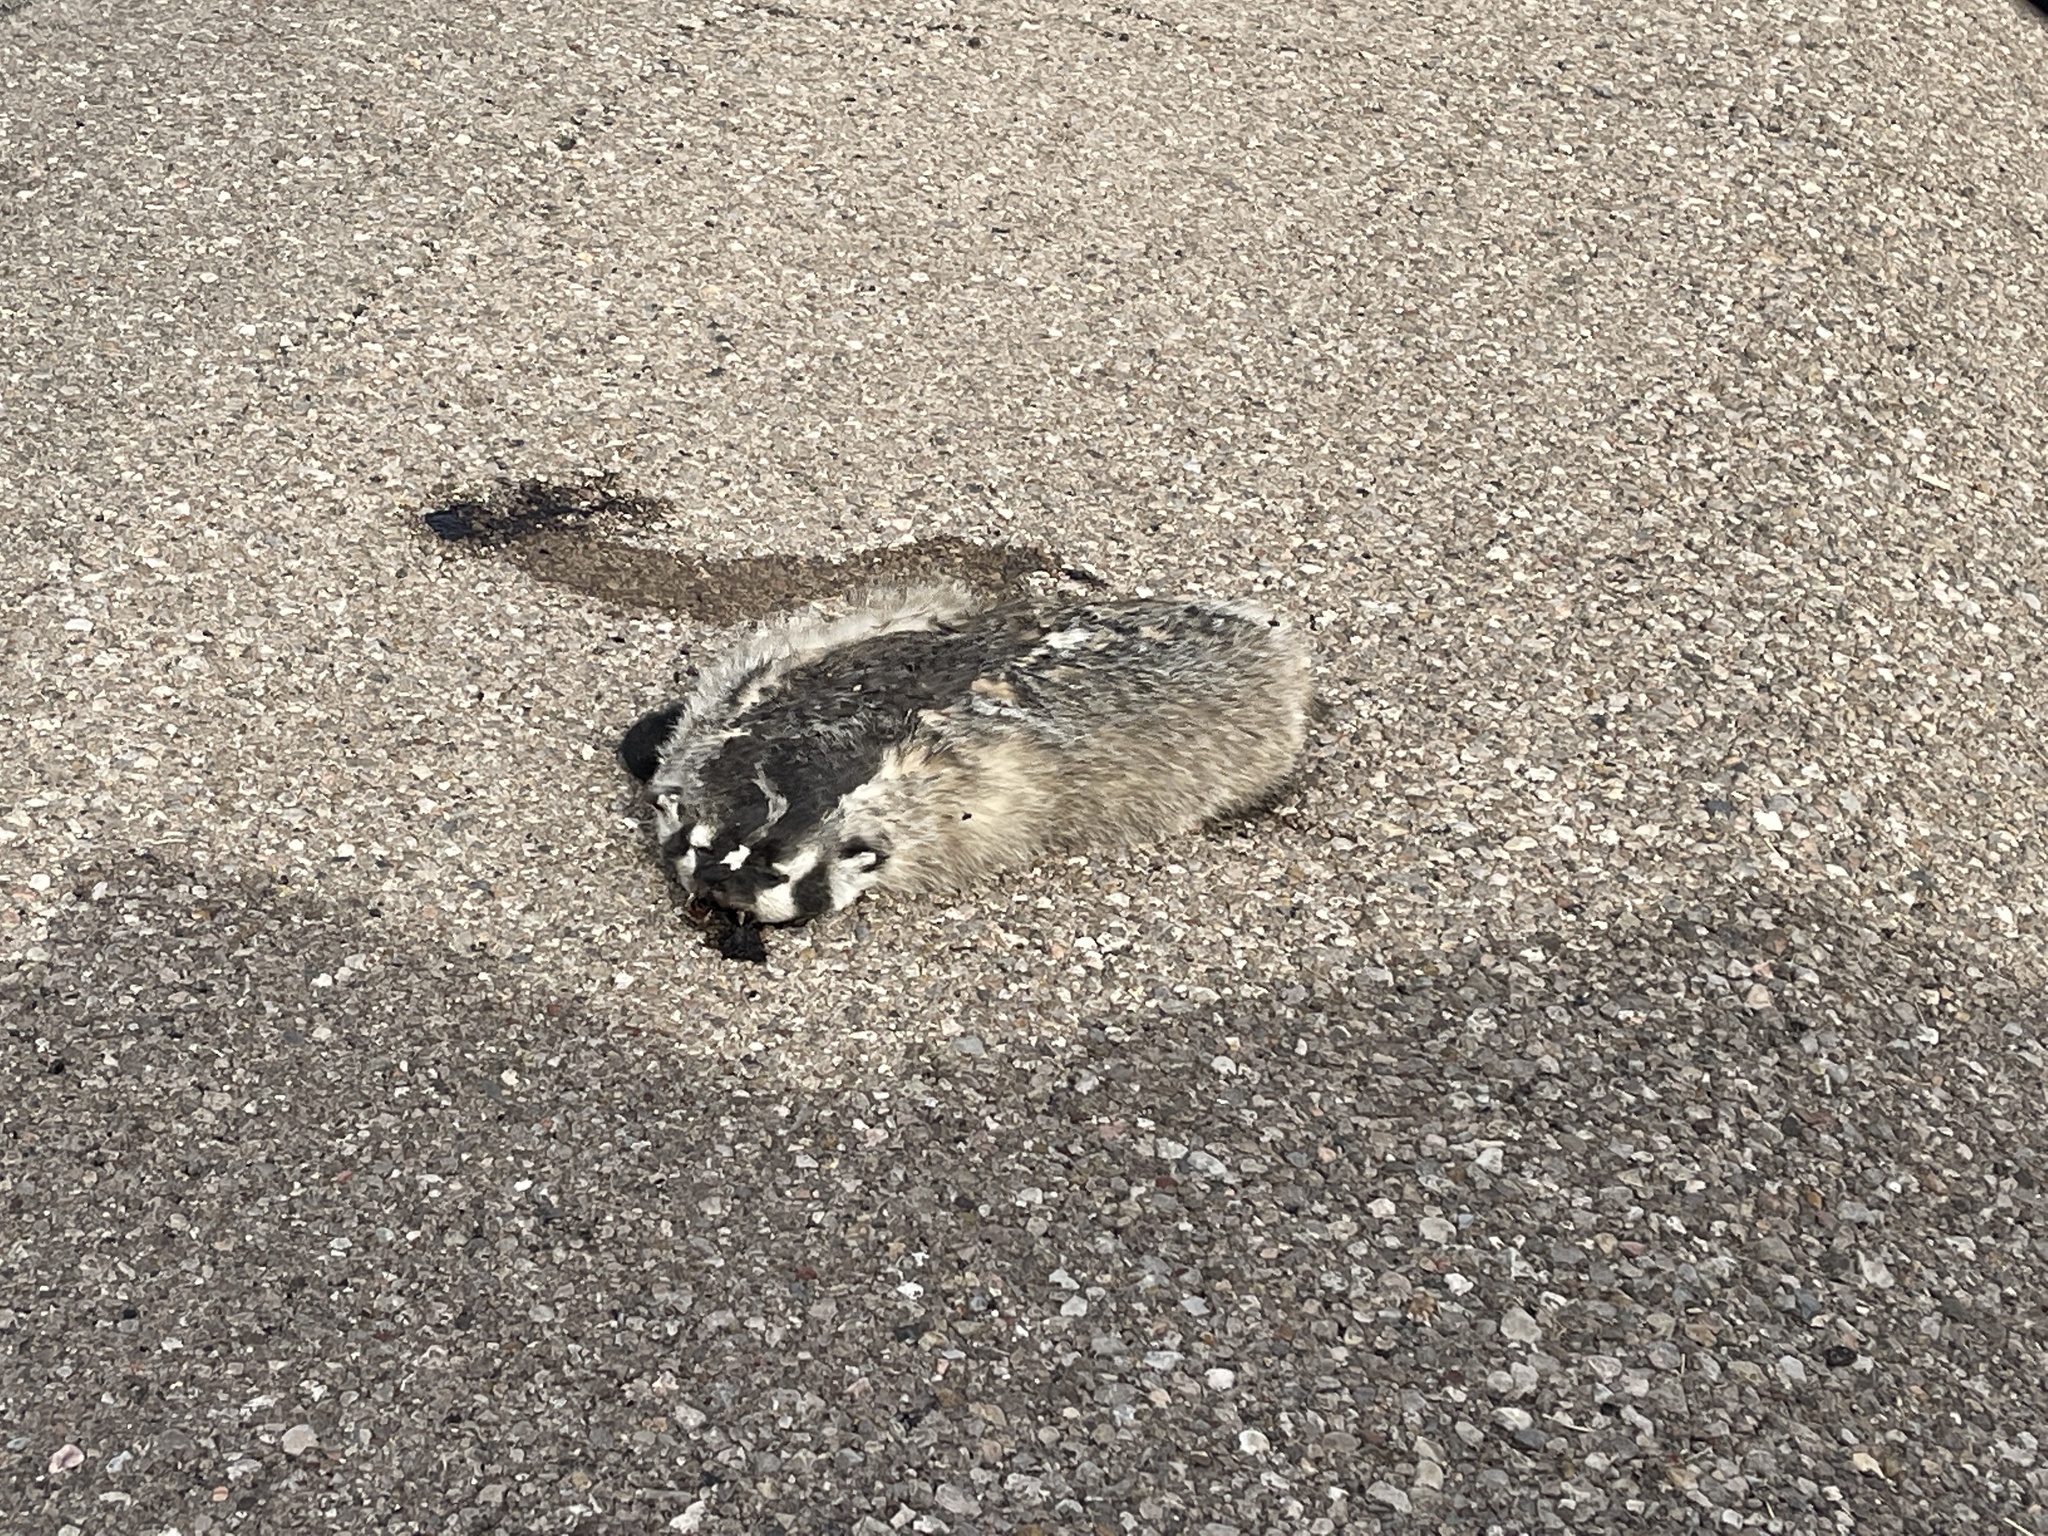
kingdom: Animalia
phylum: Chordata
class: Mammalia
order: Carnivora
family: Mustelidae
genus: Taxidea
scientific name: Taxidea taxus
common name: American badger
